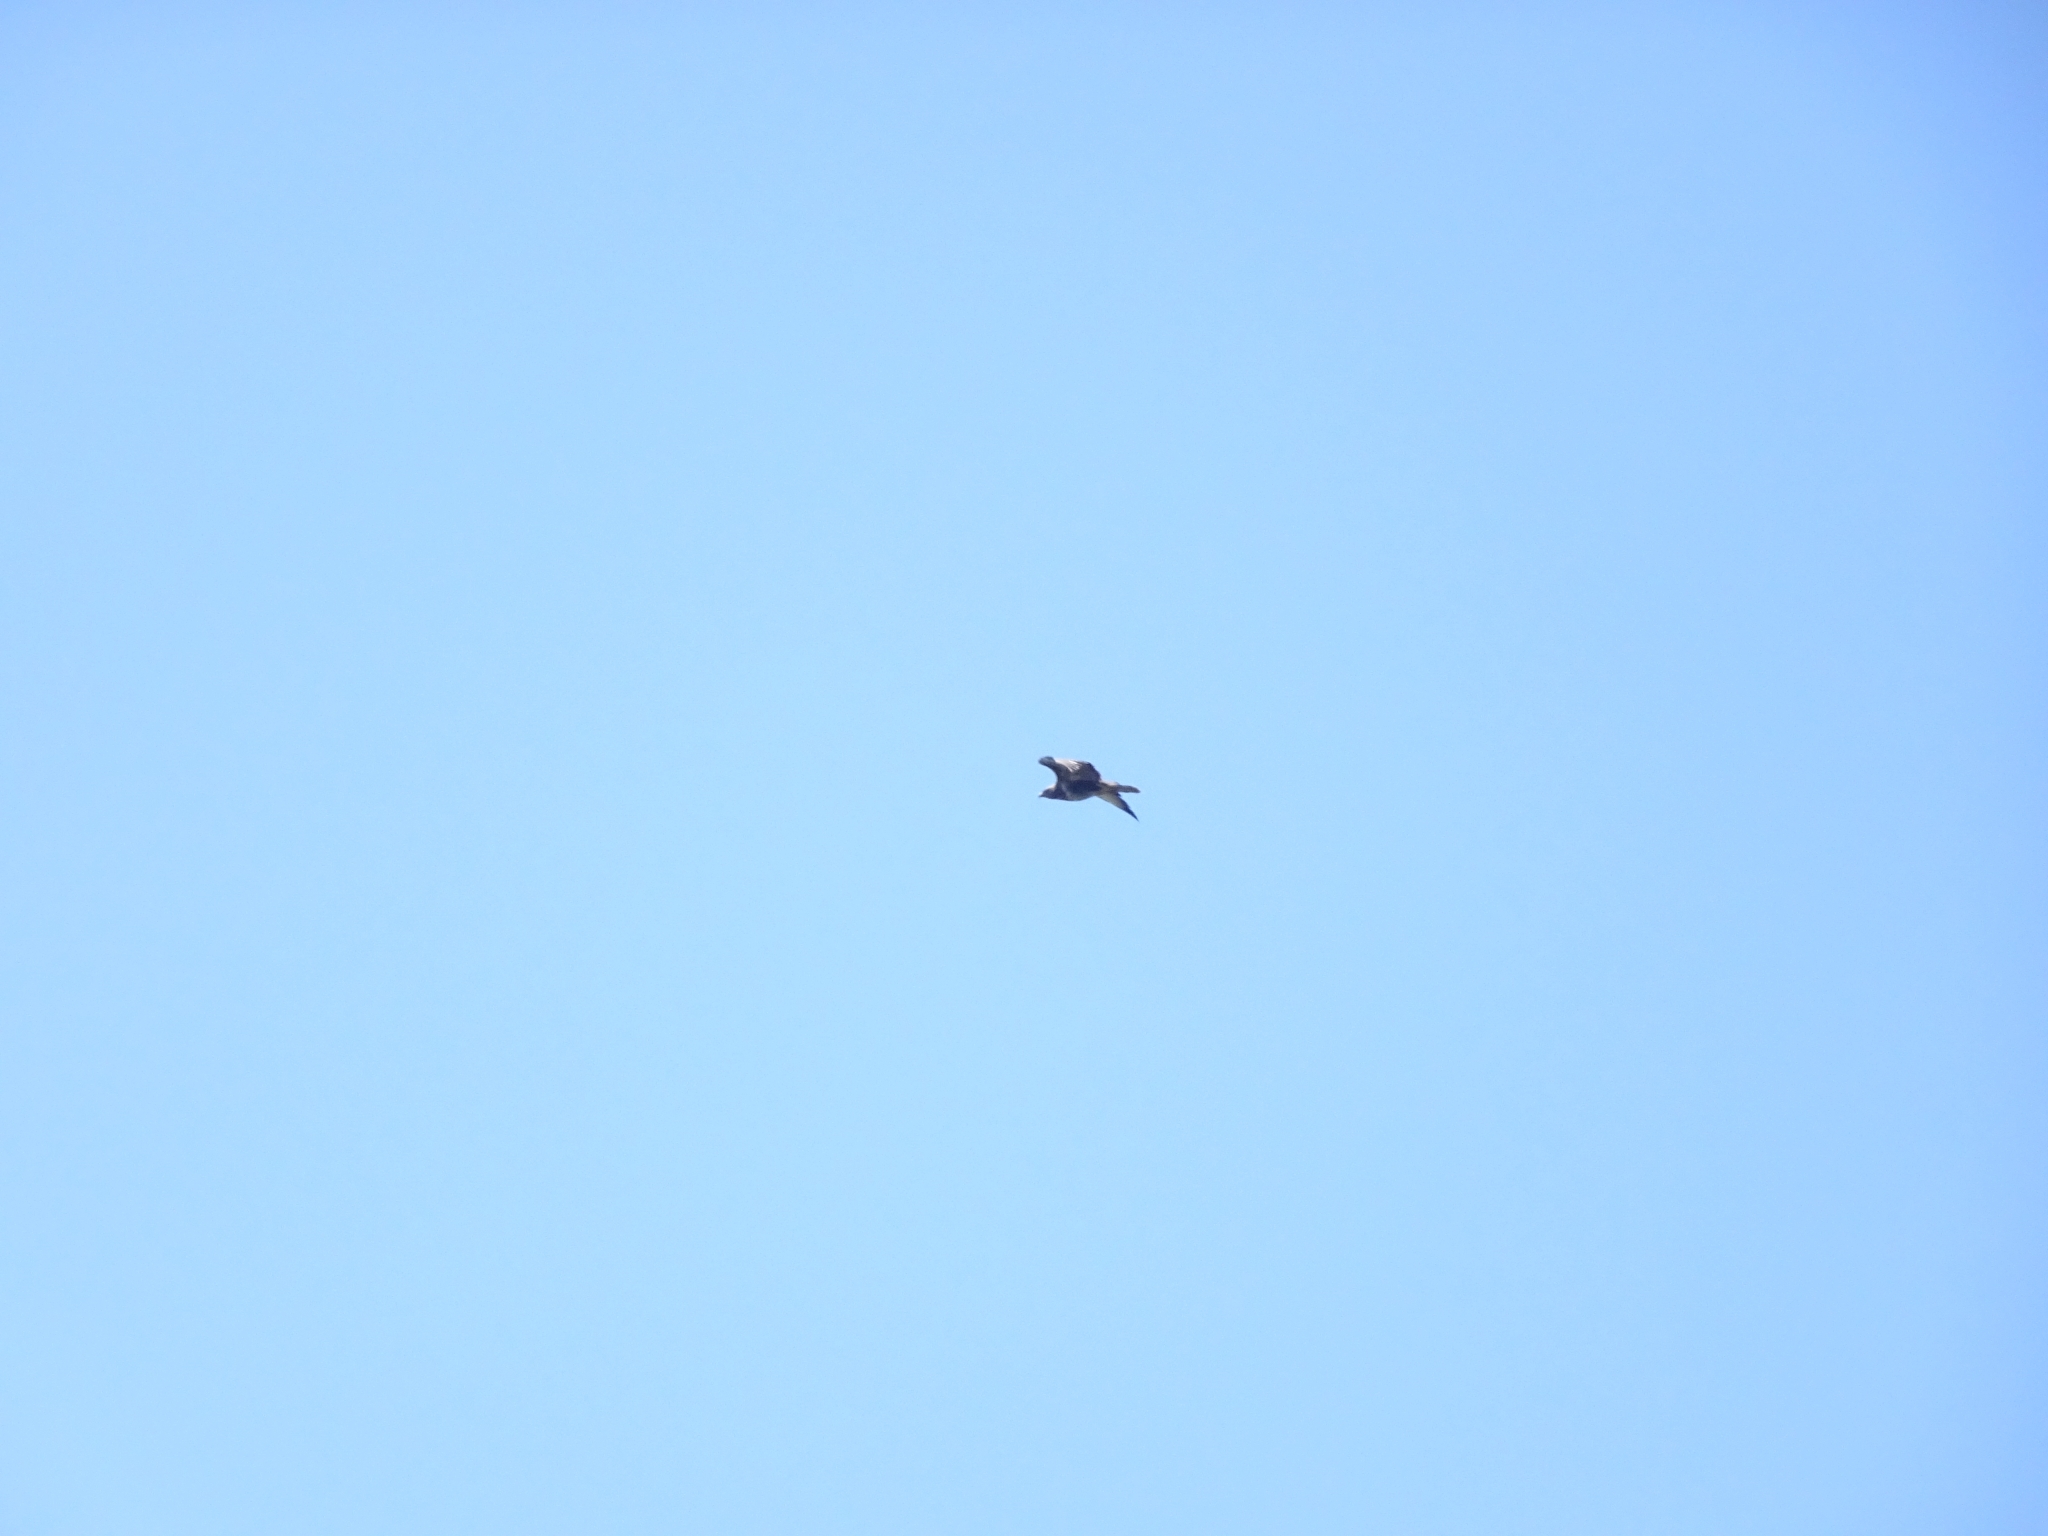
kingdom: Animalia
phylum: Chordata
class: Aves
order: Accipitriformes
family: Accipitridae
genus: Buteo
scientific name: Buteo buteo
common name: Common buzzard
